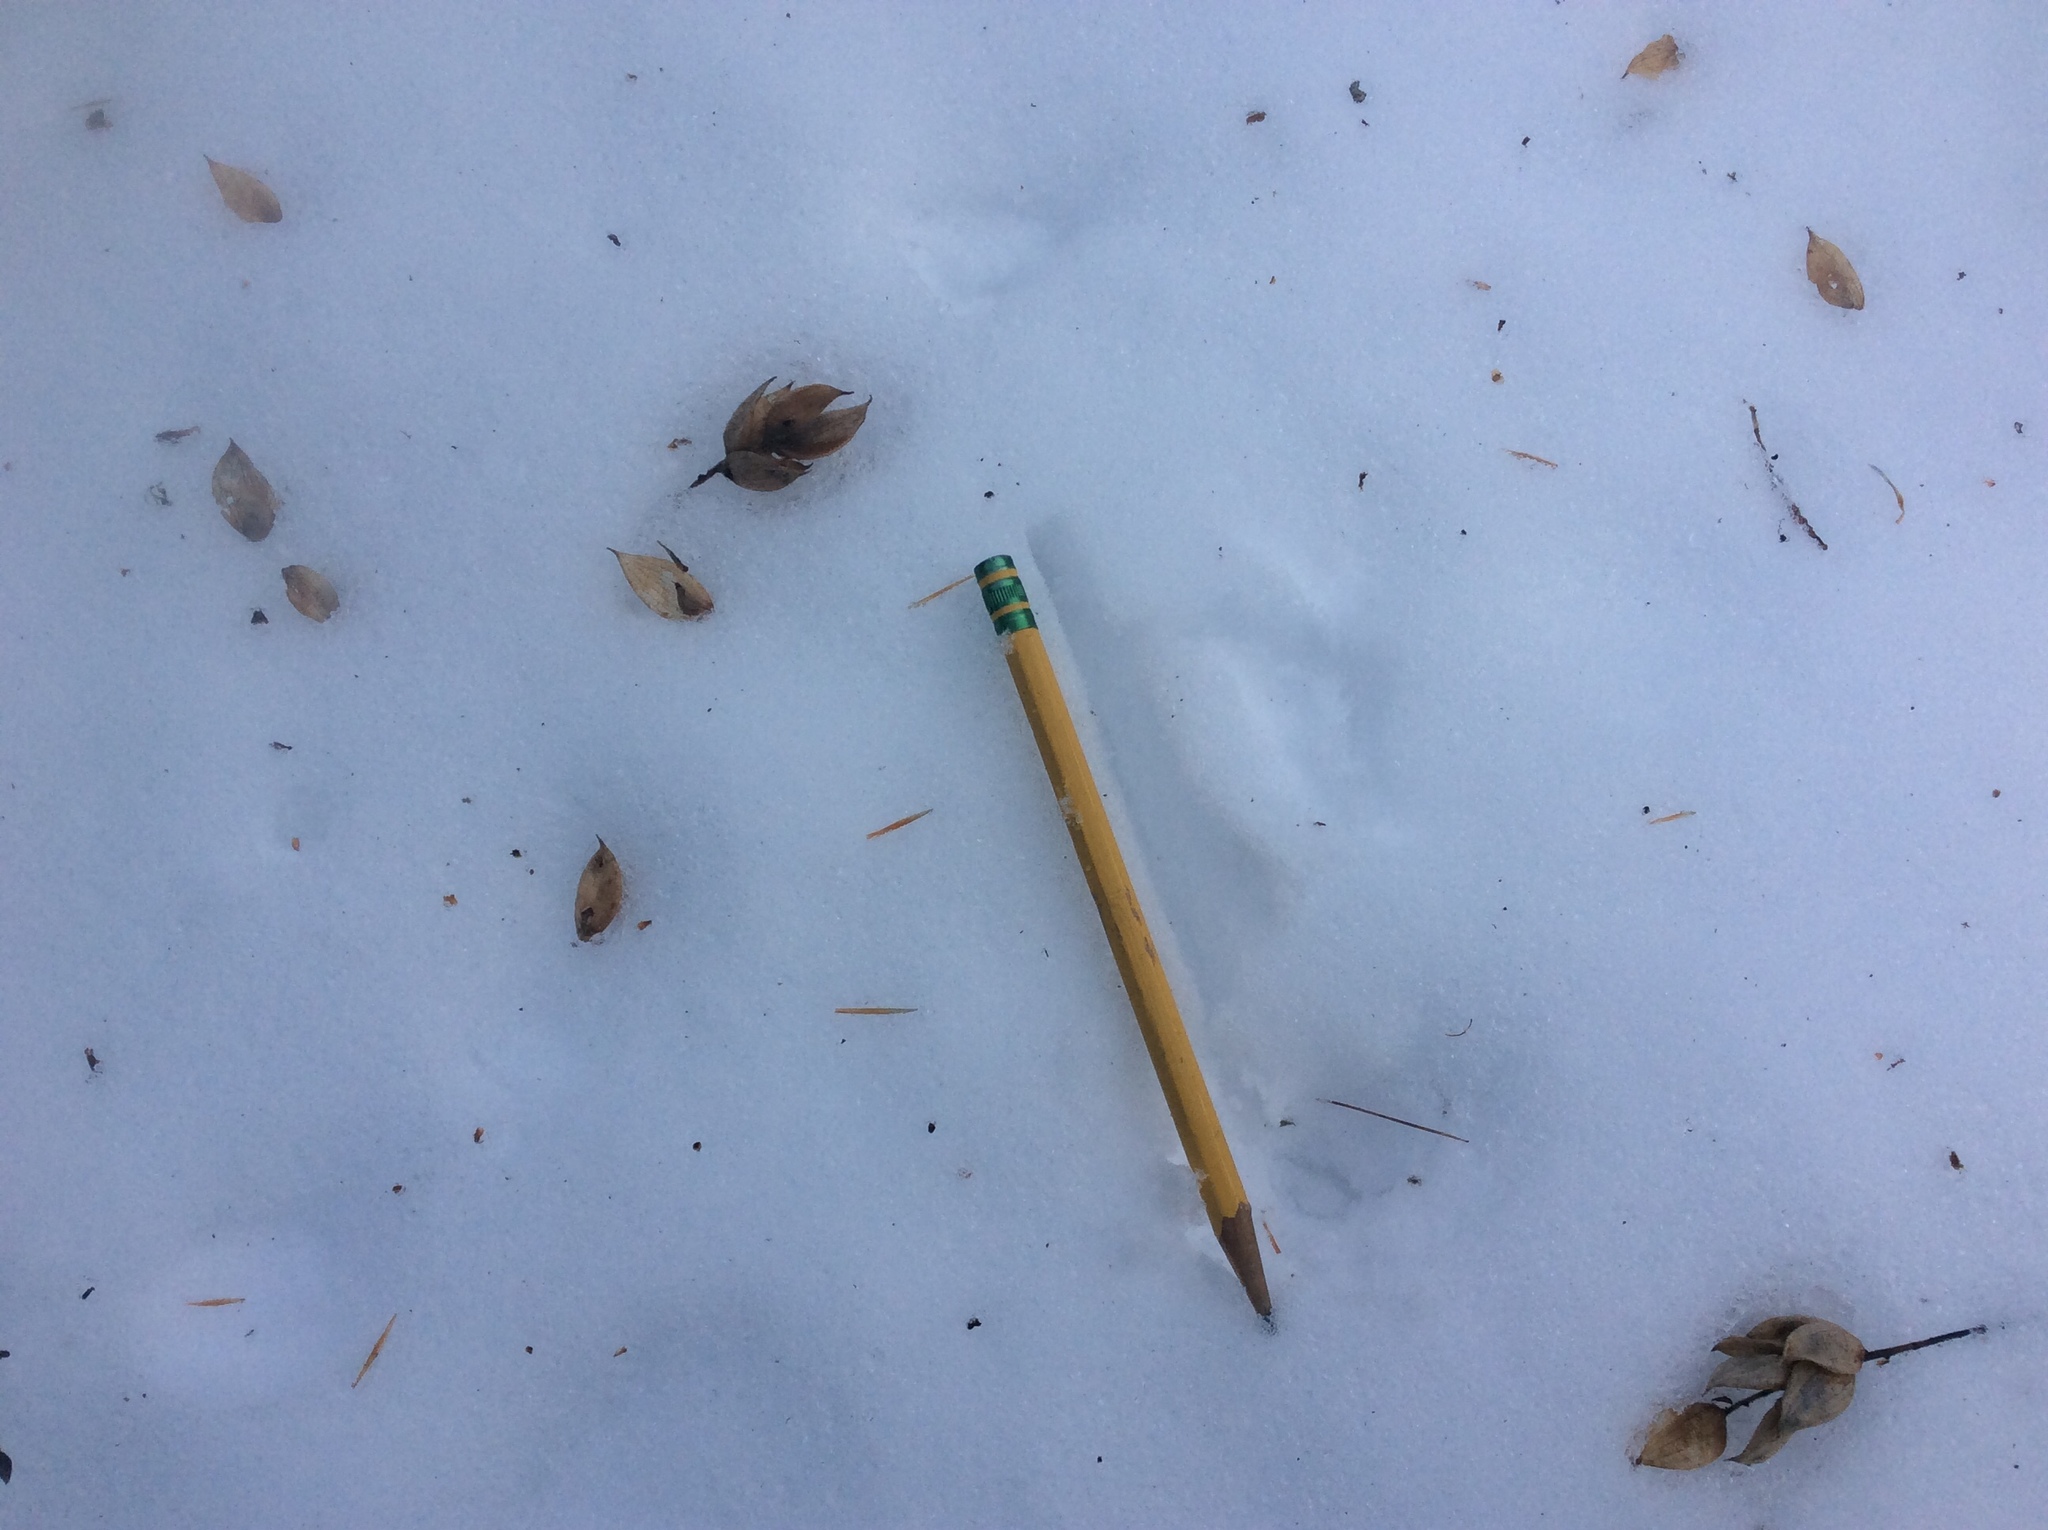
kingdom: Plantae
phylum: Tracheophyta
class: Magnoliopsida
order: Fagales
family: Betulaceae
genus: Ostrya
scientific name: Ostrya virginiana
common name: Ironwood
